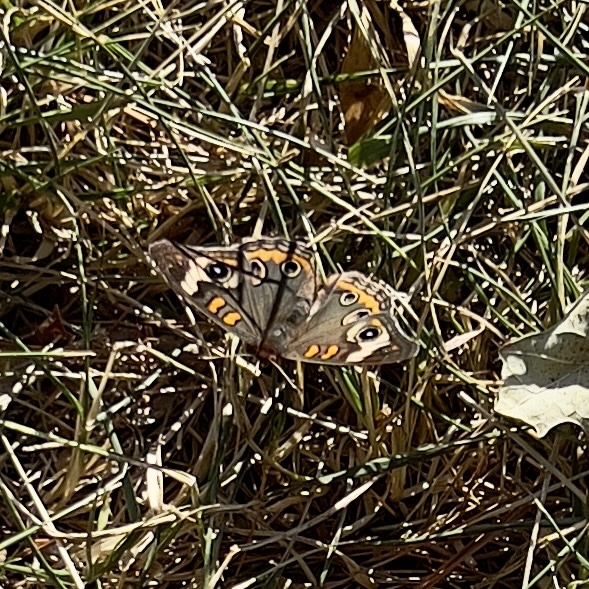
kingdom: Animalia
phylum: Arthropoda
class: Insecta
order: Lepidoptera
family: Nymphalidae
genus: Junonia
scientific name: Junonia coenia
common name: Common buckeye
